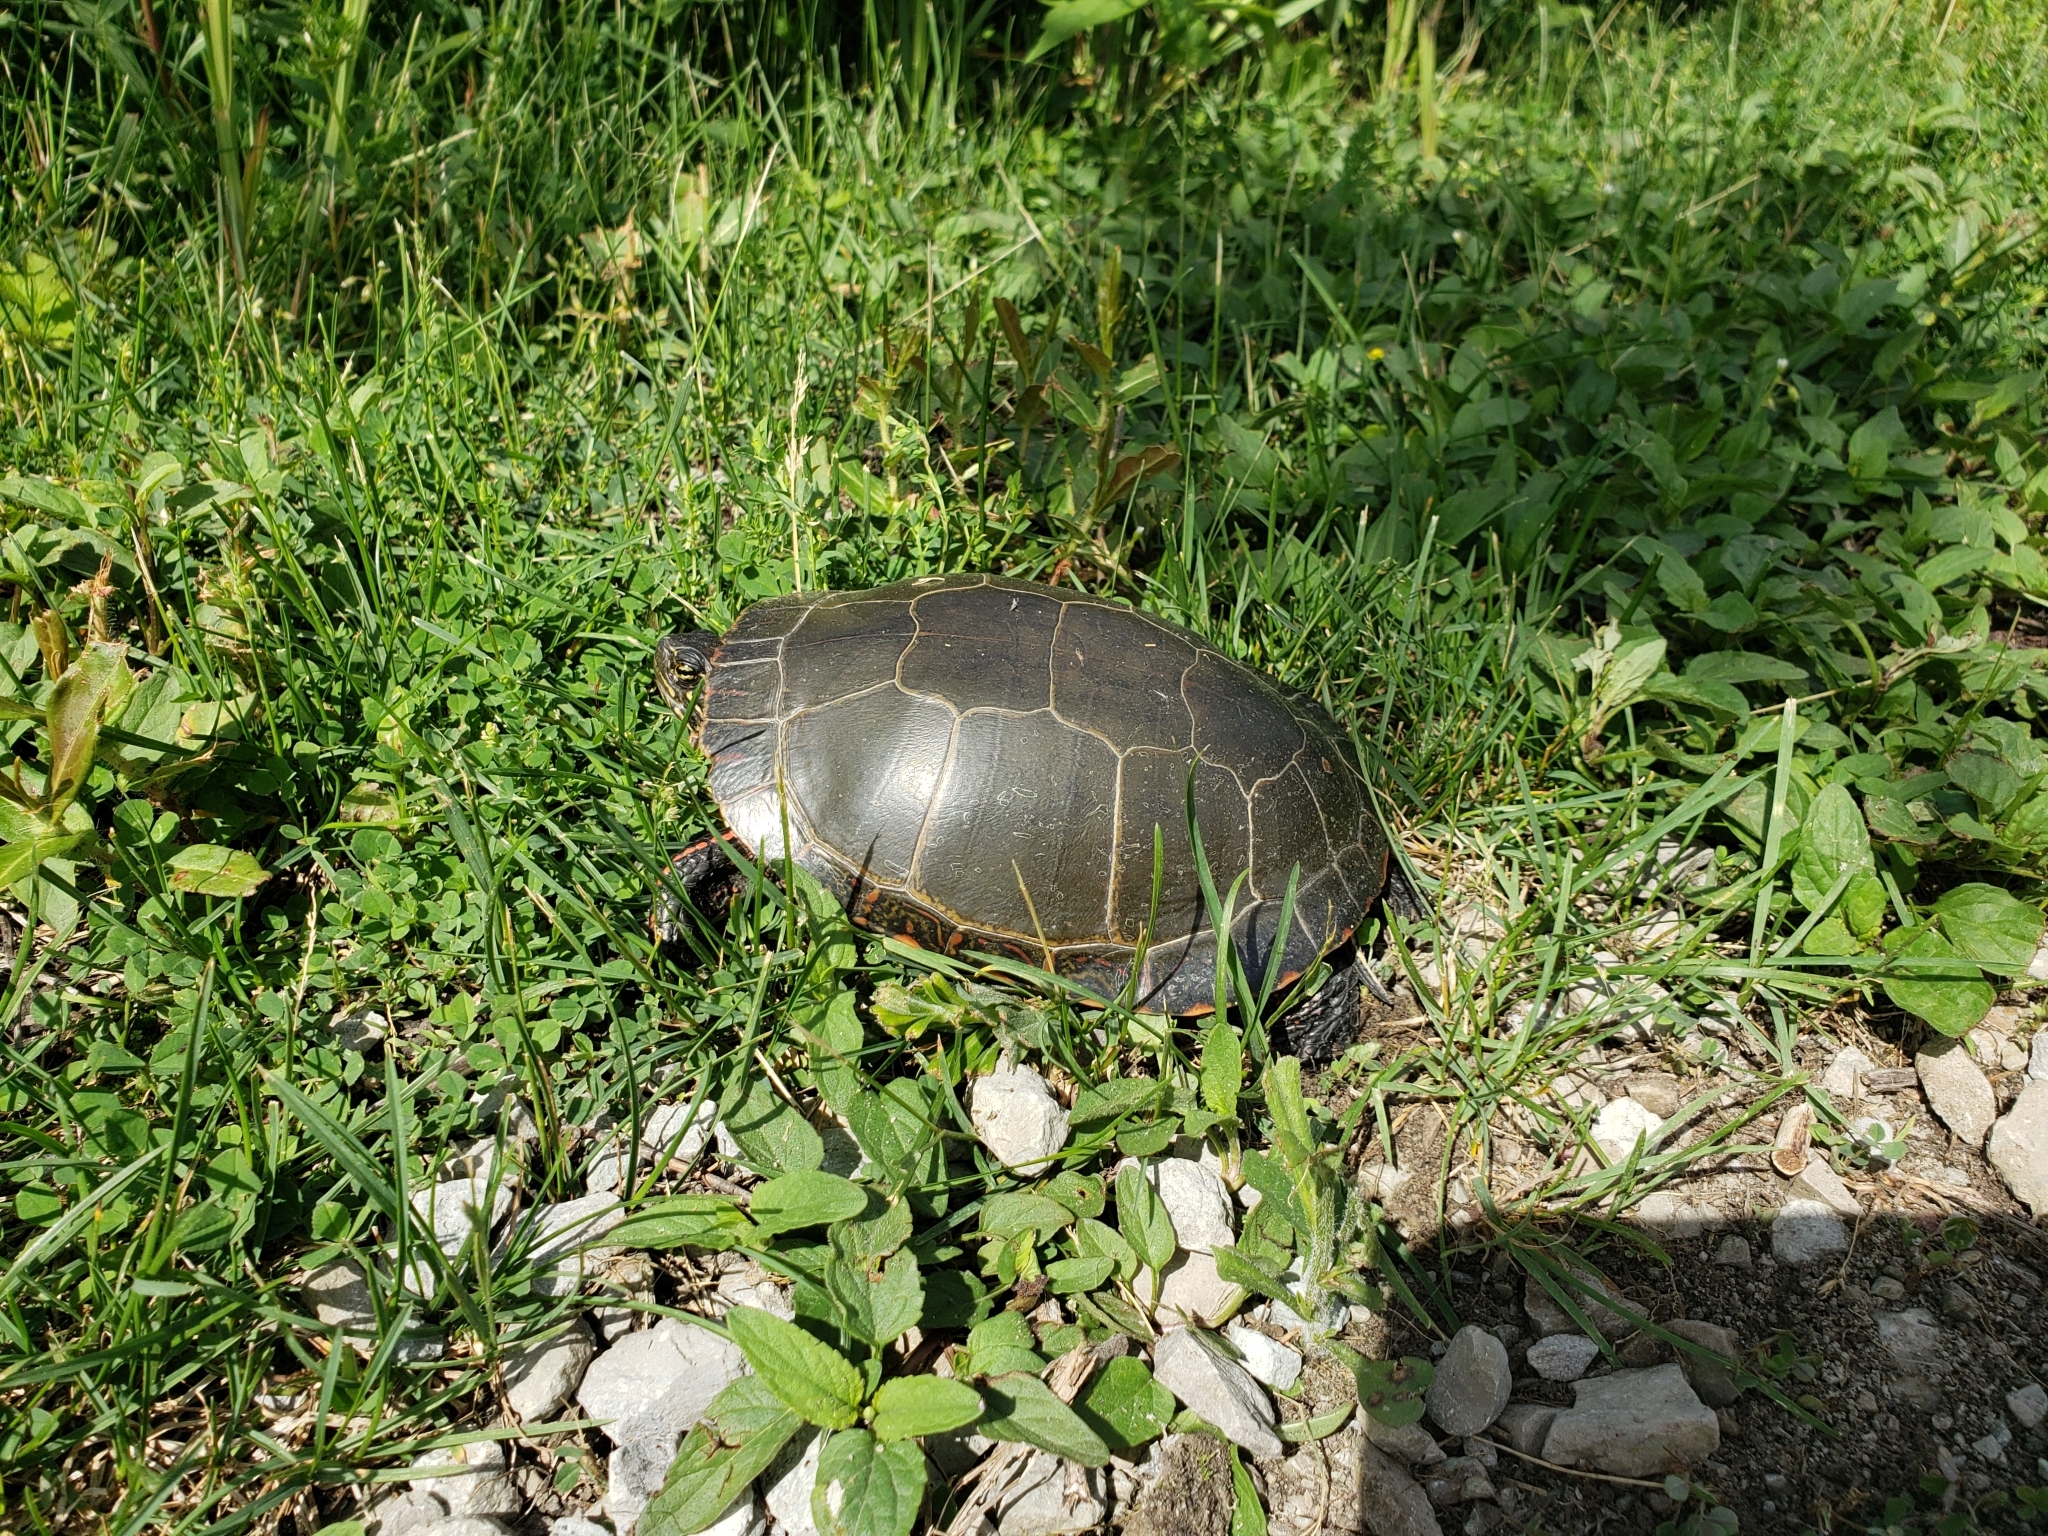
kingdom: Animalia
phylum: Chordata
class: Testudines
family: Emydidae
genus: Chrysemys
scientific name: Chrysemys picta
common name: Painted turtle
